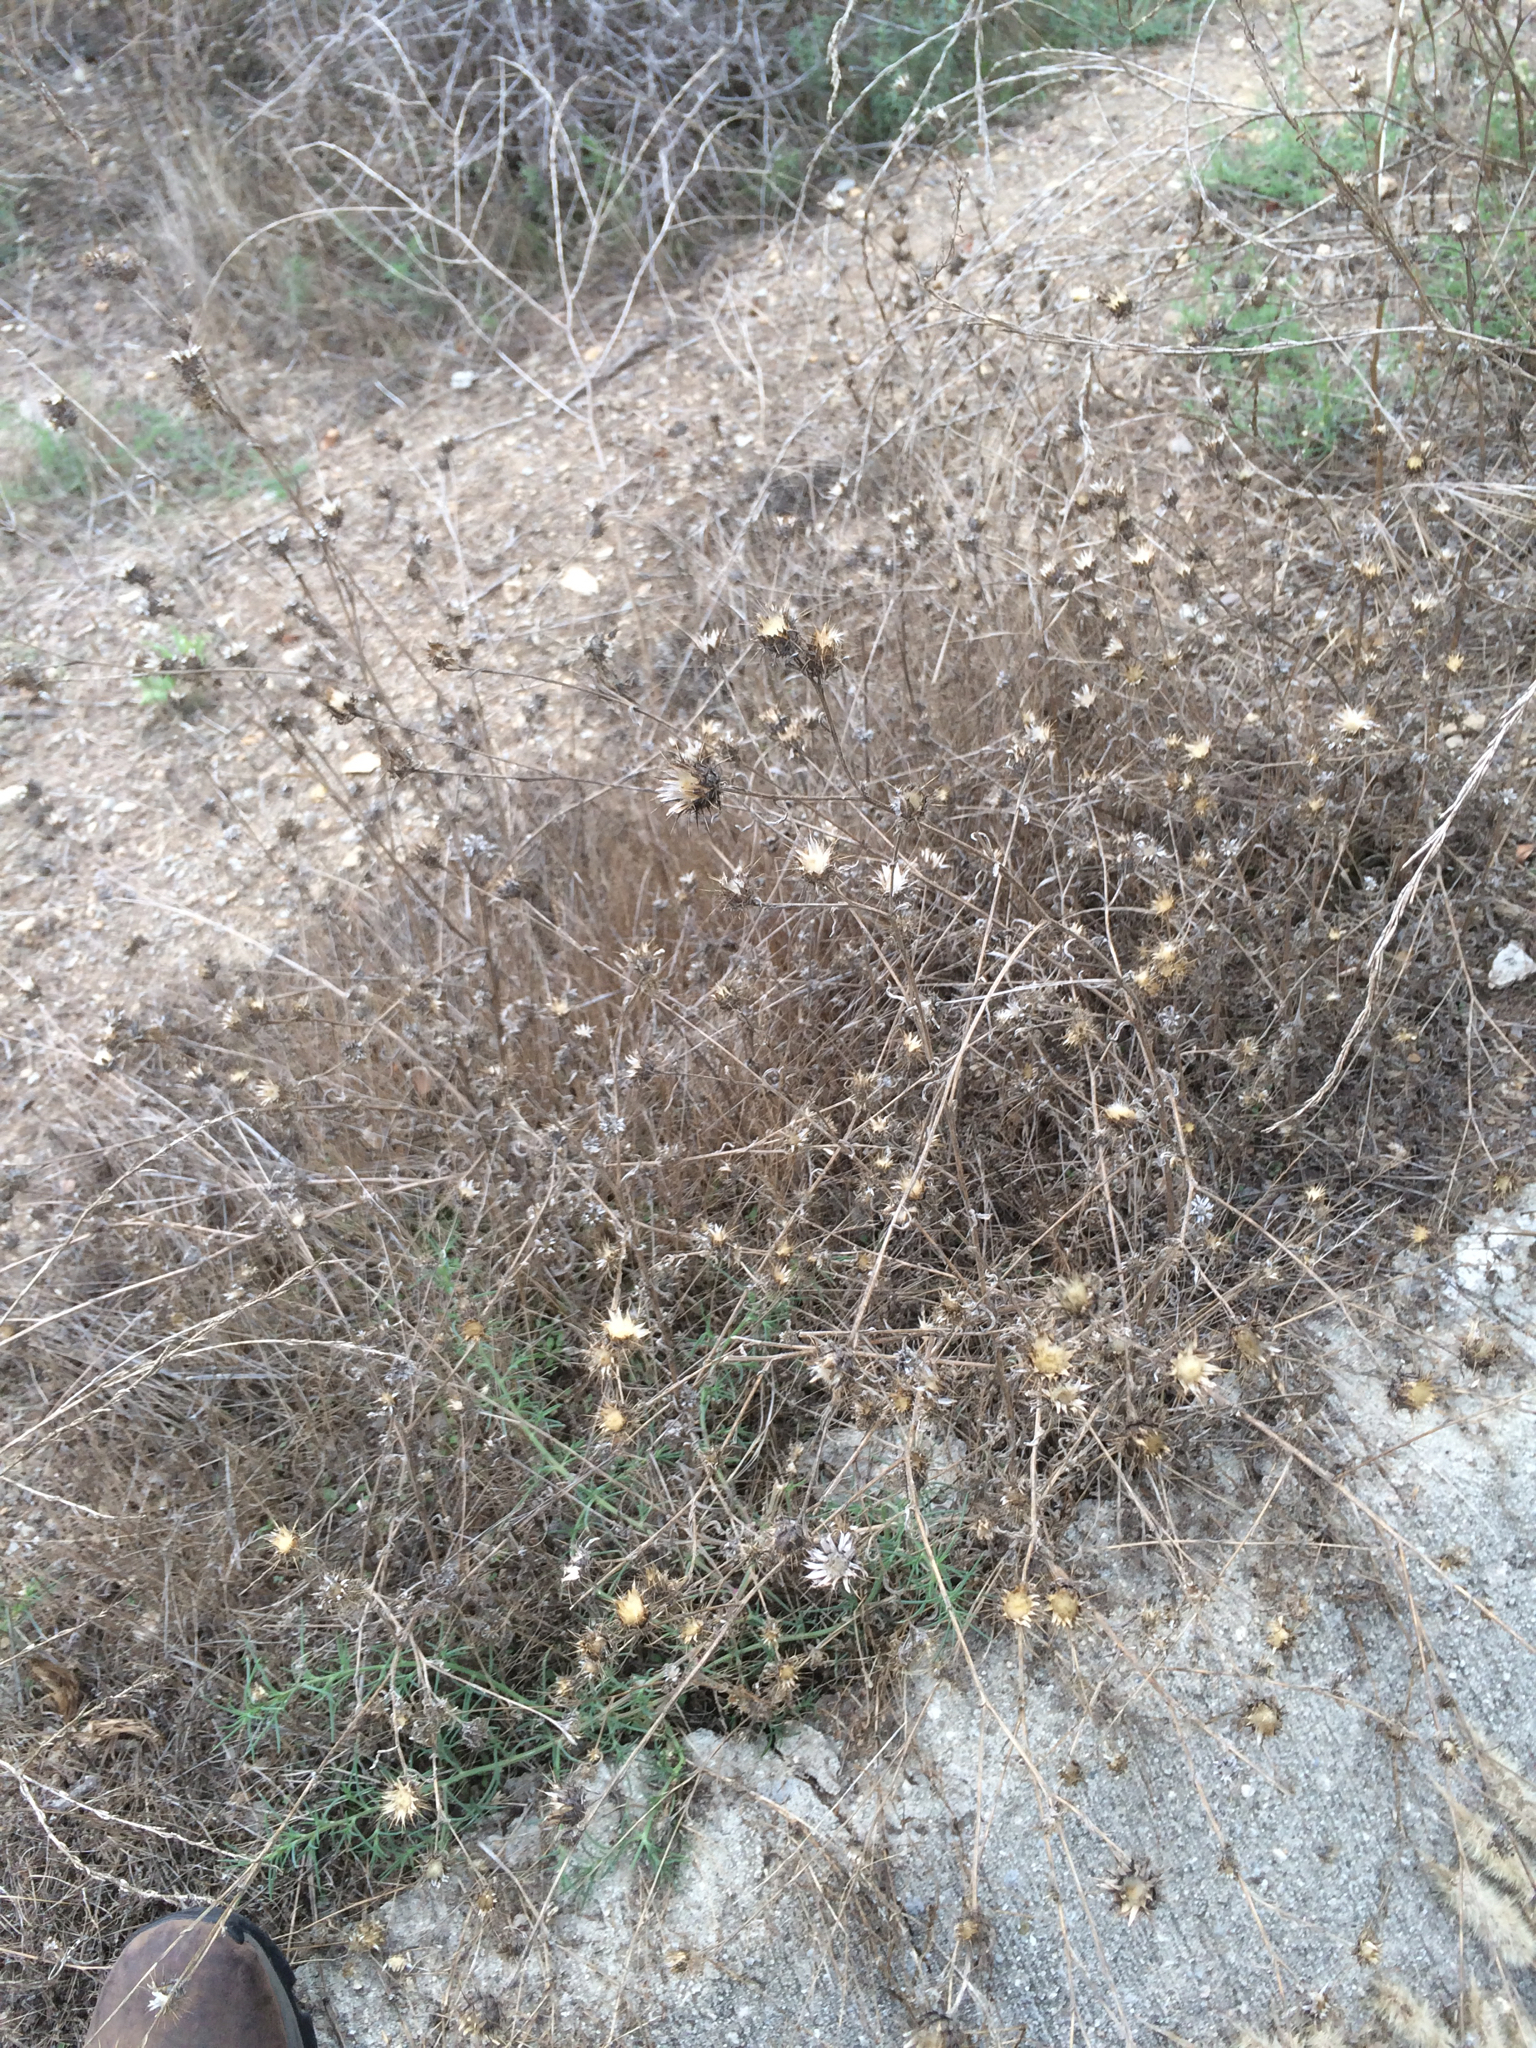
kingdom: Plantae
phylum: Tracheophyta
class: Magnoliopsida
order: Asterales
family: Asteraceae
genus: Centaurea
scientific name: Centaurea melitensis
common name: Maltese star-thistle
